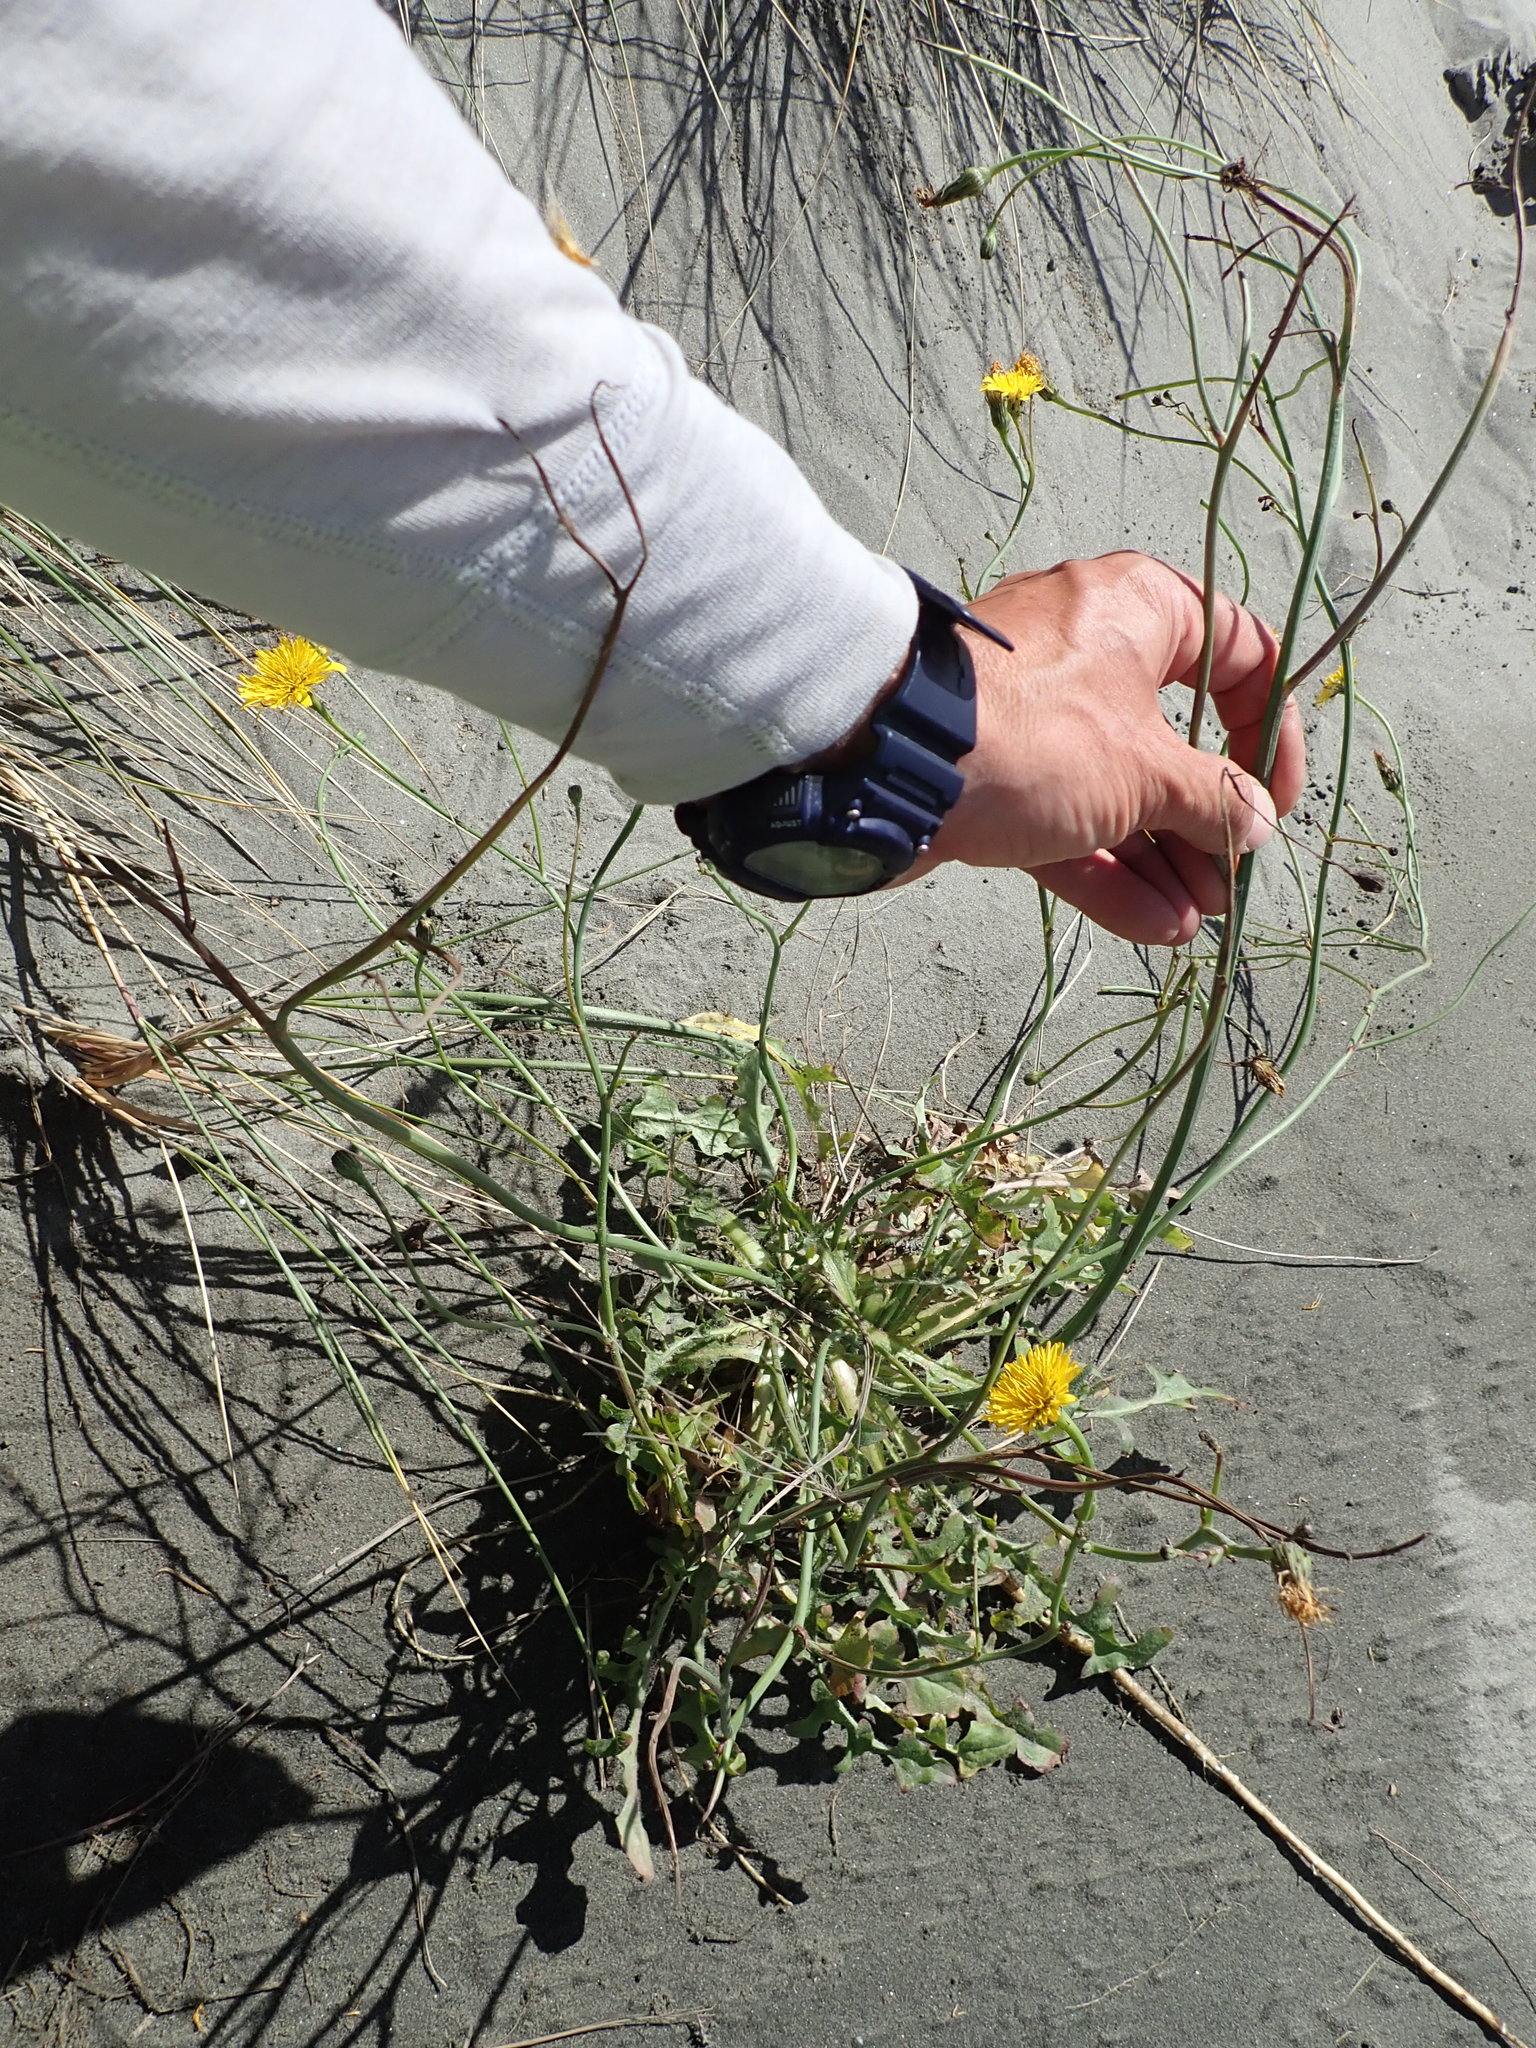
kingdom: Plantae
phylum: Tracheophyta
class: Magnoliopsida
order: Asterales
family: Asteraceae
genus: Hypochaeris
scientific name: Hypochaeris radicata
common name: Flatweed
